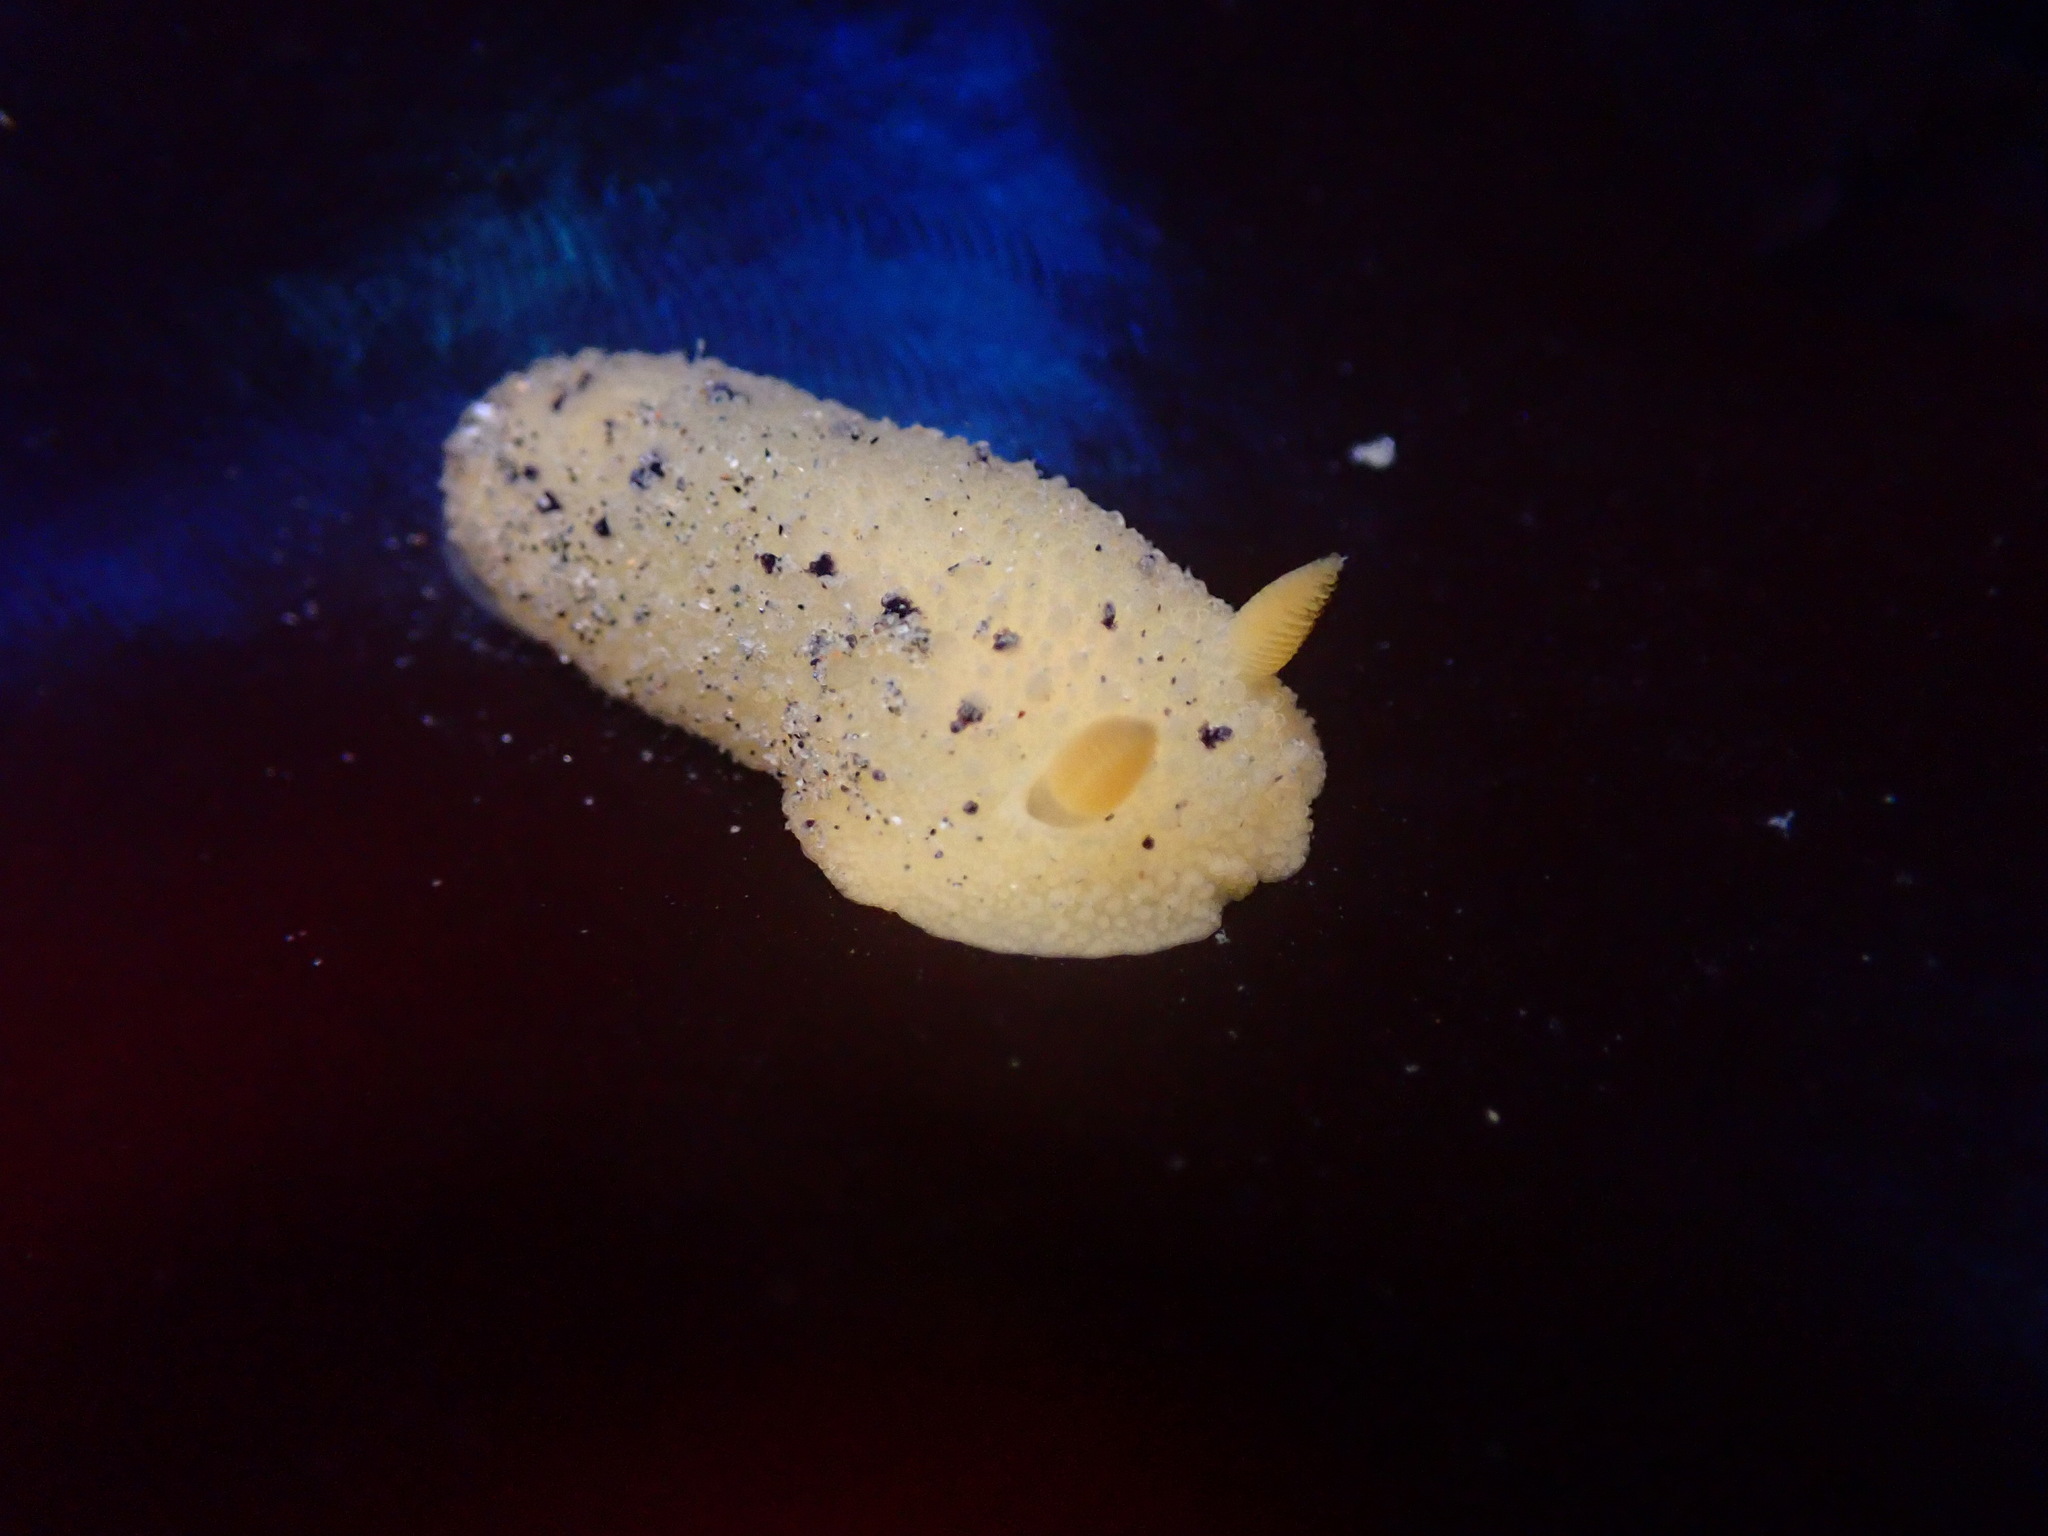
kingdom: Animalia
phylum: Mollusca
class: Gastropoda
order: Nudibranchia
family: Dorididae
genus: Doris
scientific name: Doris montereyensis
